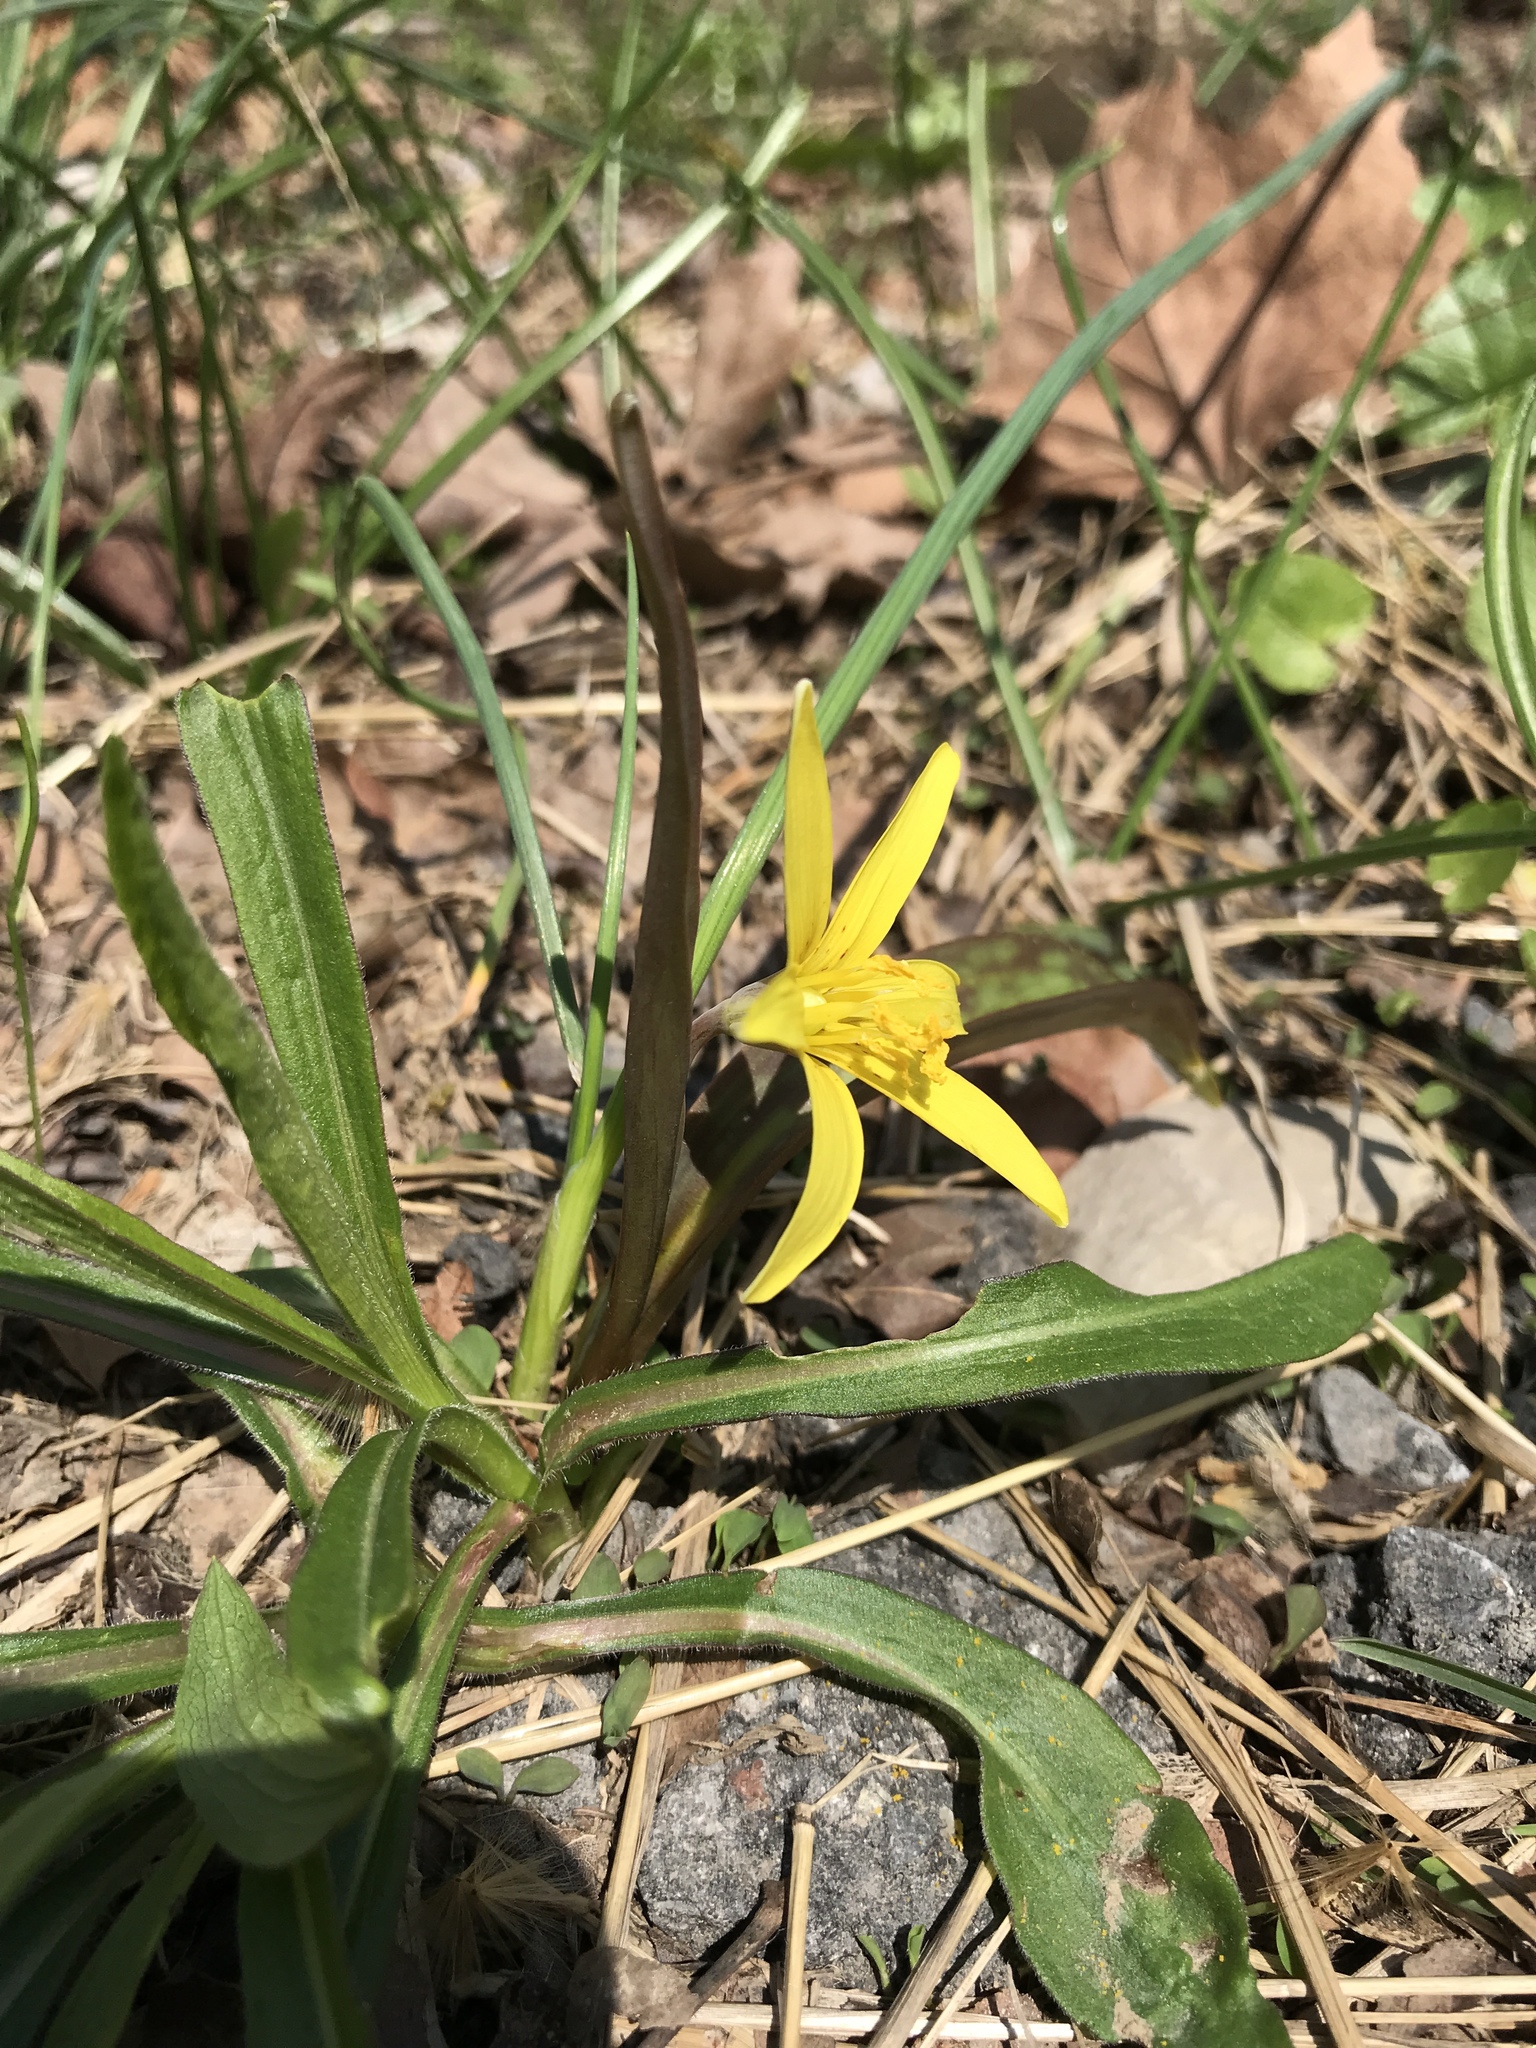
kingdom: Plantae
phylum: Tracheophyta
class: Liliopsida
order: Liliales
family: Liliaceae
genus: Erythronium
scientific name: Erythronium americanum
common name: Yellow adder's-tongue
